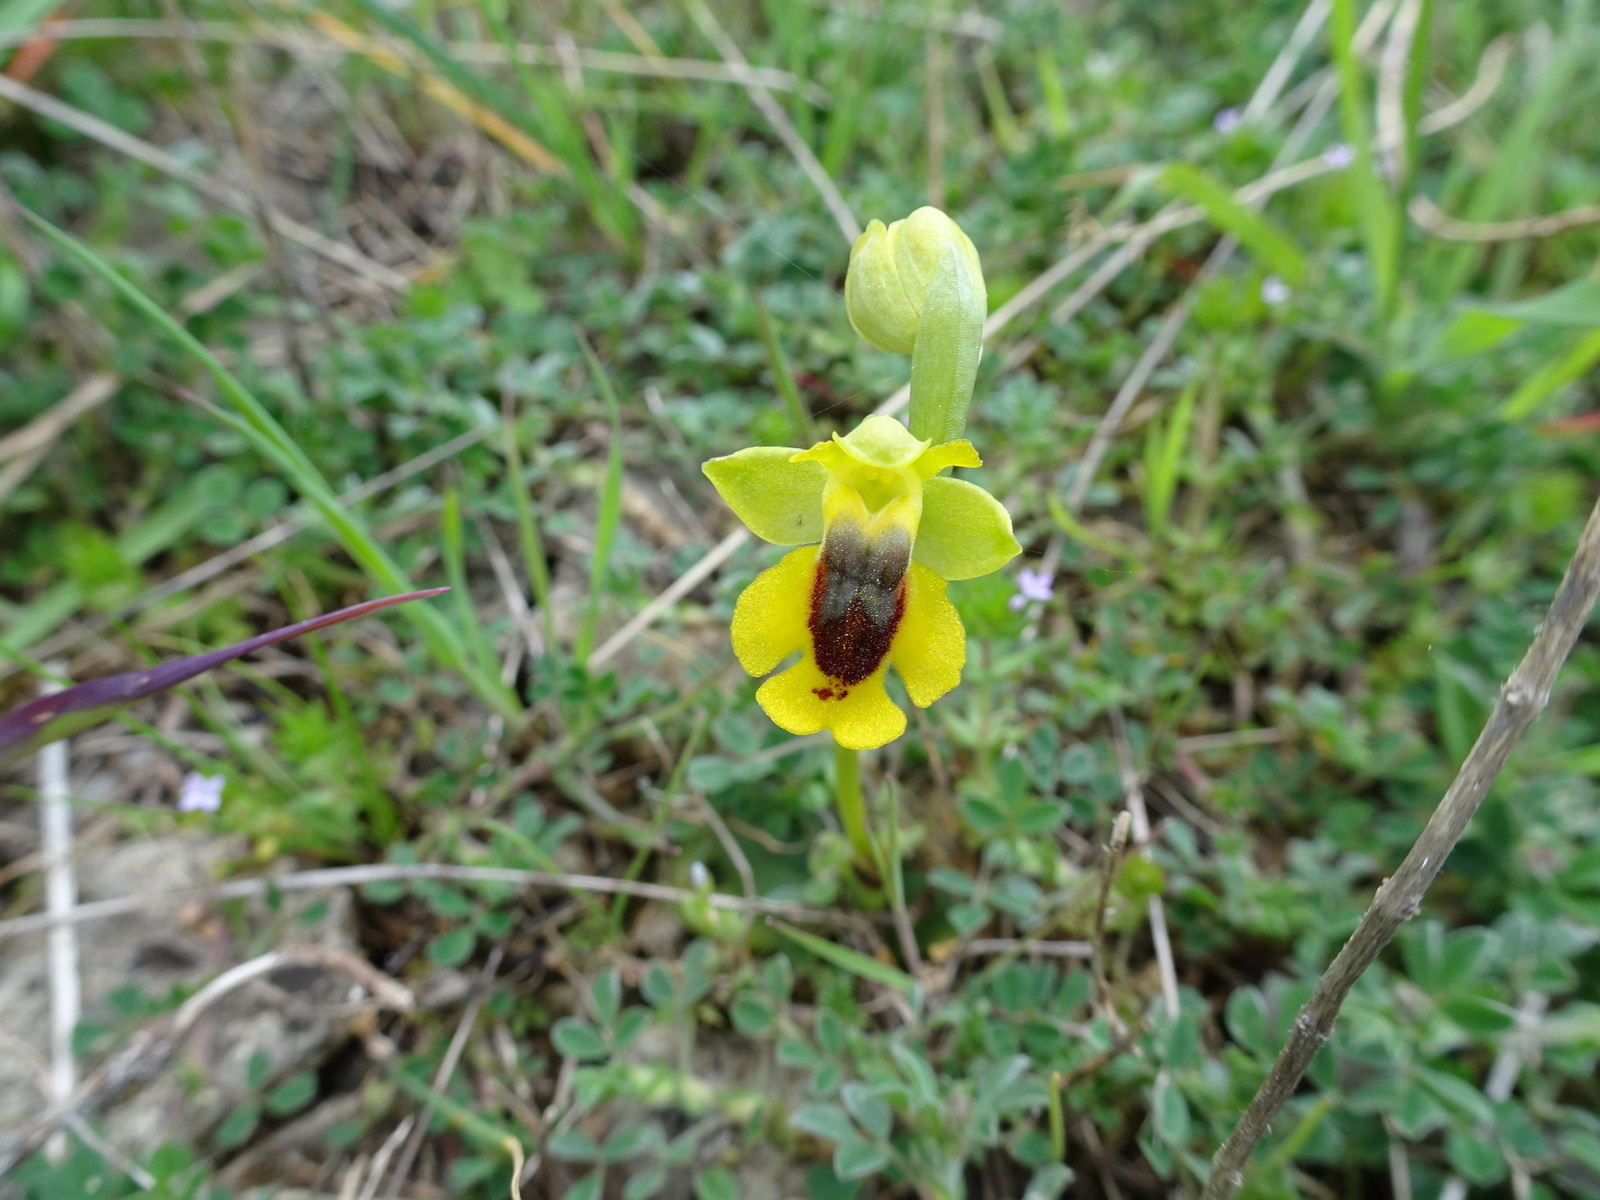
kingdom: Plantae
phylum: Tracheophyta
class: Liliopsida
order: Asparagales
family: Orchidaceae
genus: Ophrys
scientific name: Ophrys lutea
